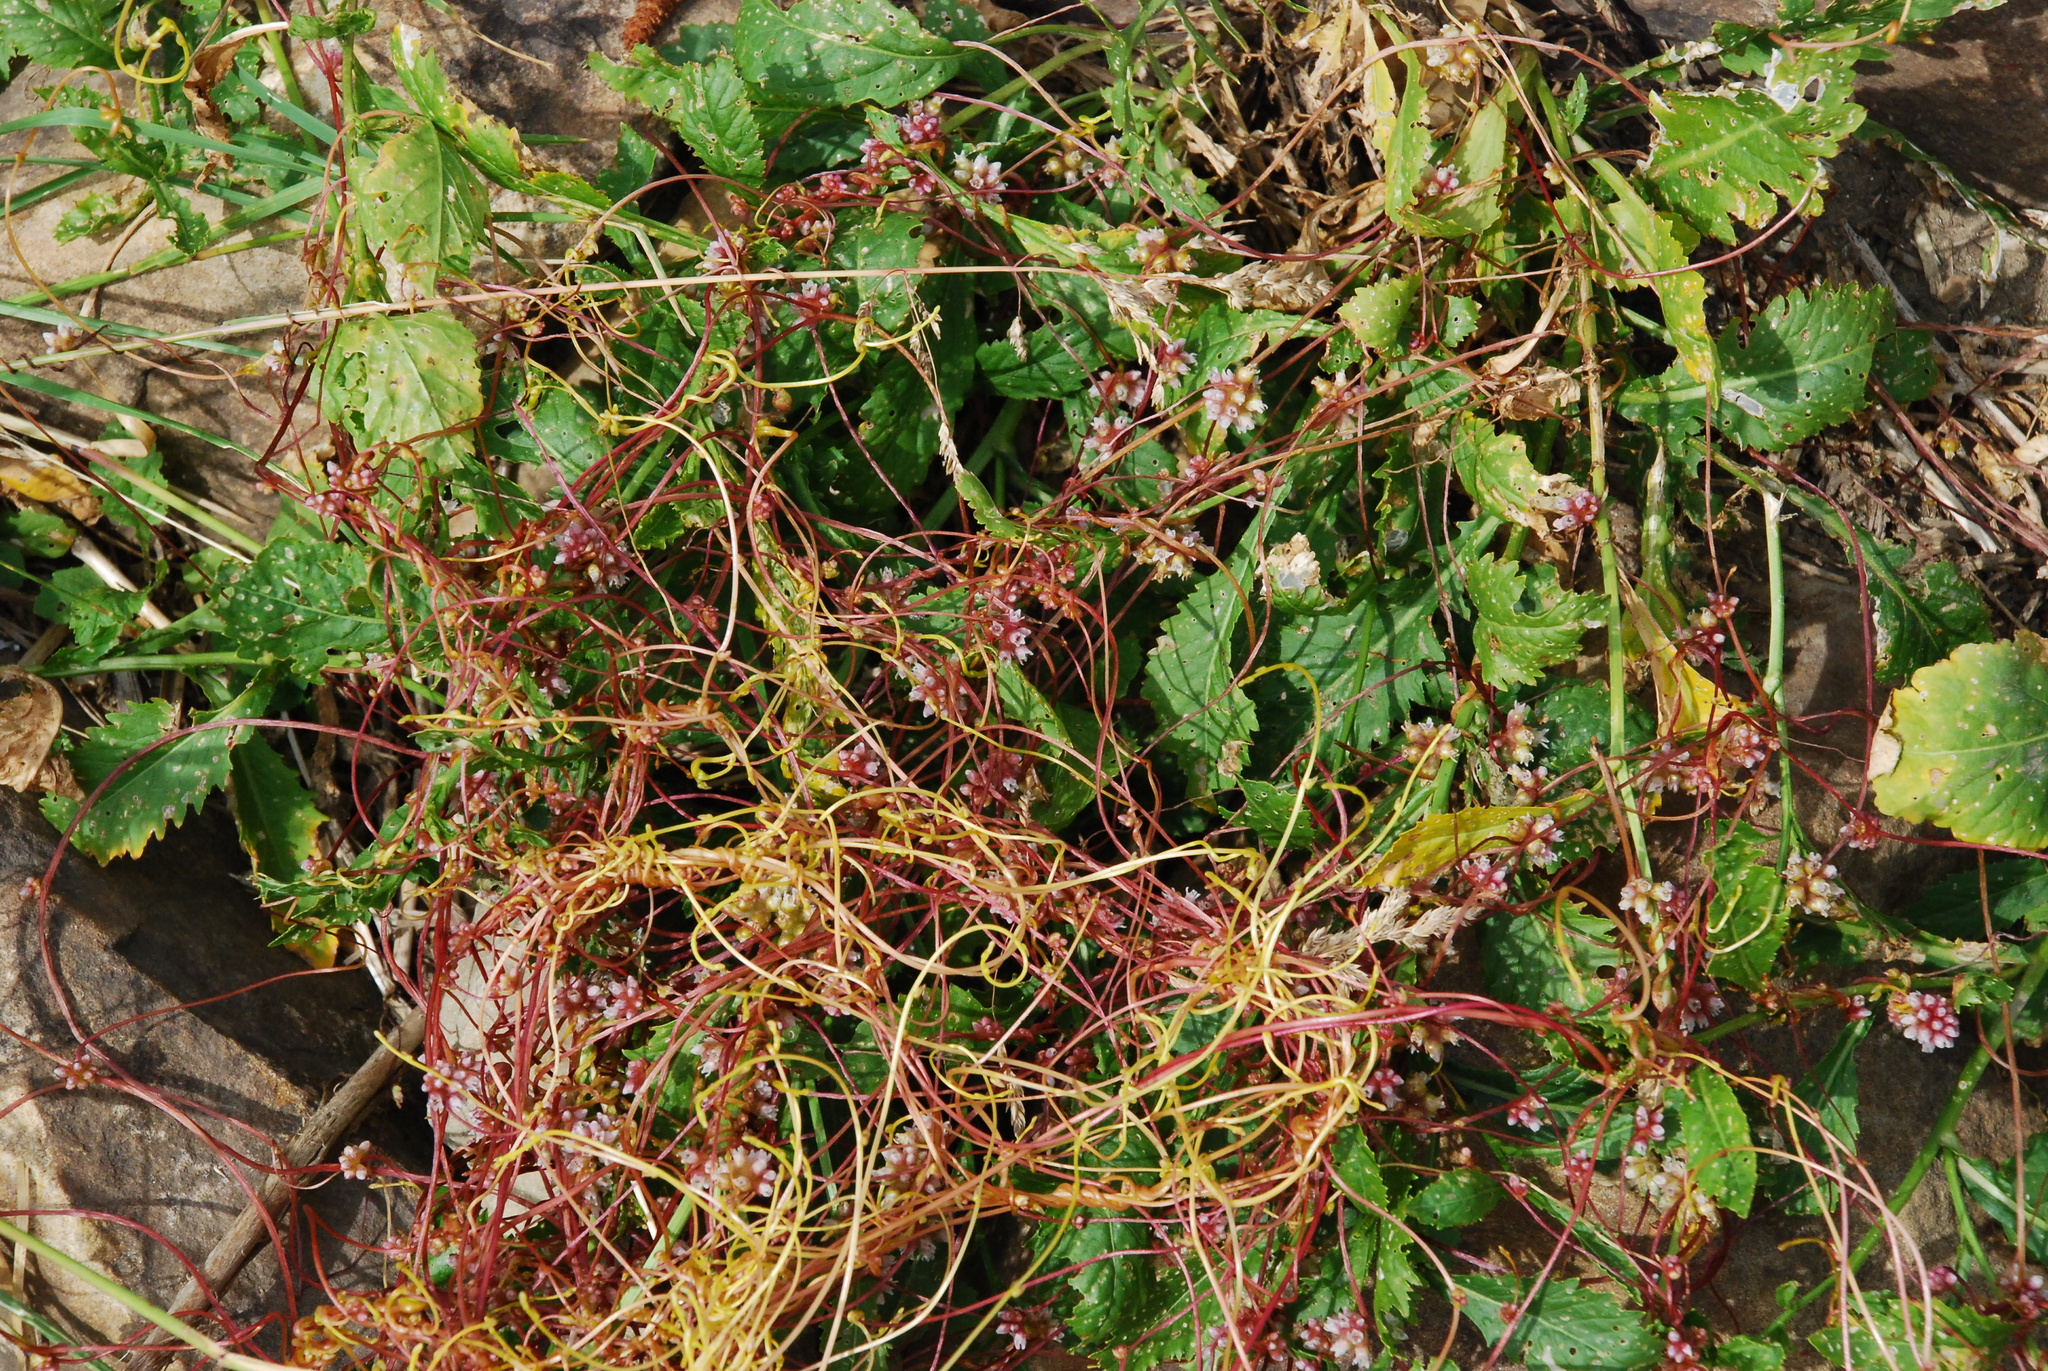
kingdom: Plantae
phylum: Tracheophyta
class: Magnoliopsida
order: Solanales
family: Convolvulaceae
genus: Cuscuta
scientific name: Cuscuta europaea
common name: Greater dodder
